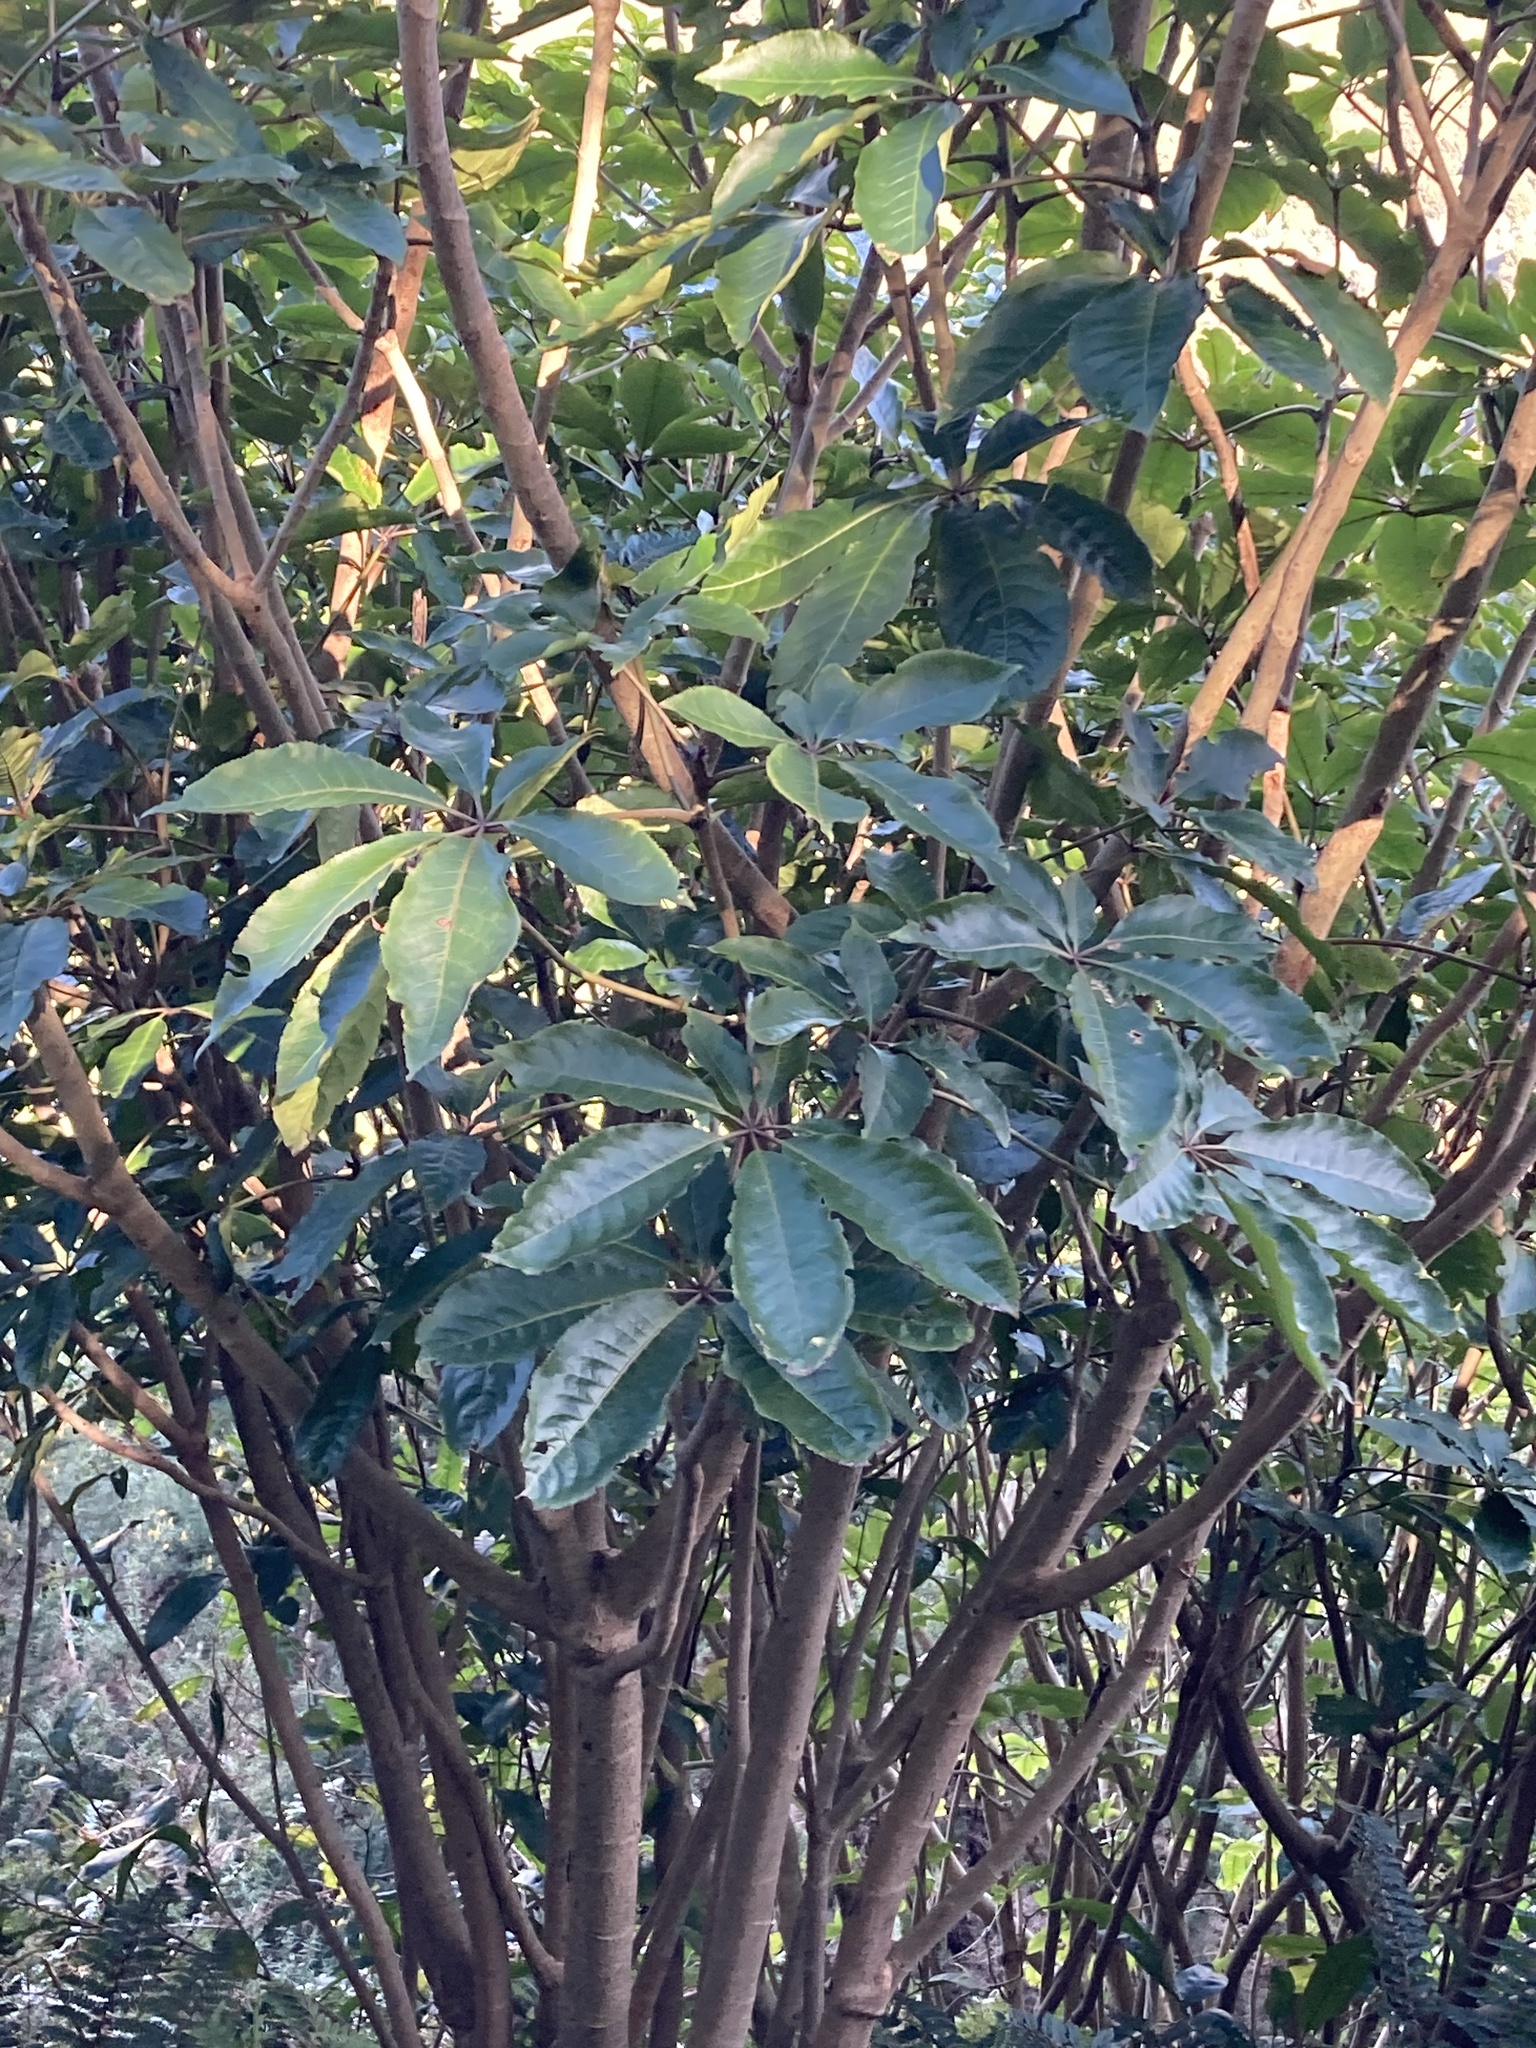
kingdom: Plantae
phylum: Tracheophyta
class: Magnoliopsida
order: Apiales
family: Araliaceae
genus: Schefflera
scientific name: Schefflera digitata
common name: Pate
